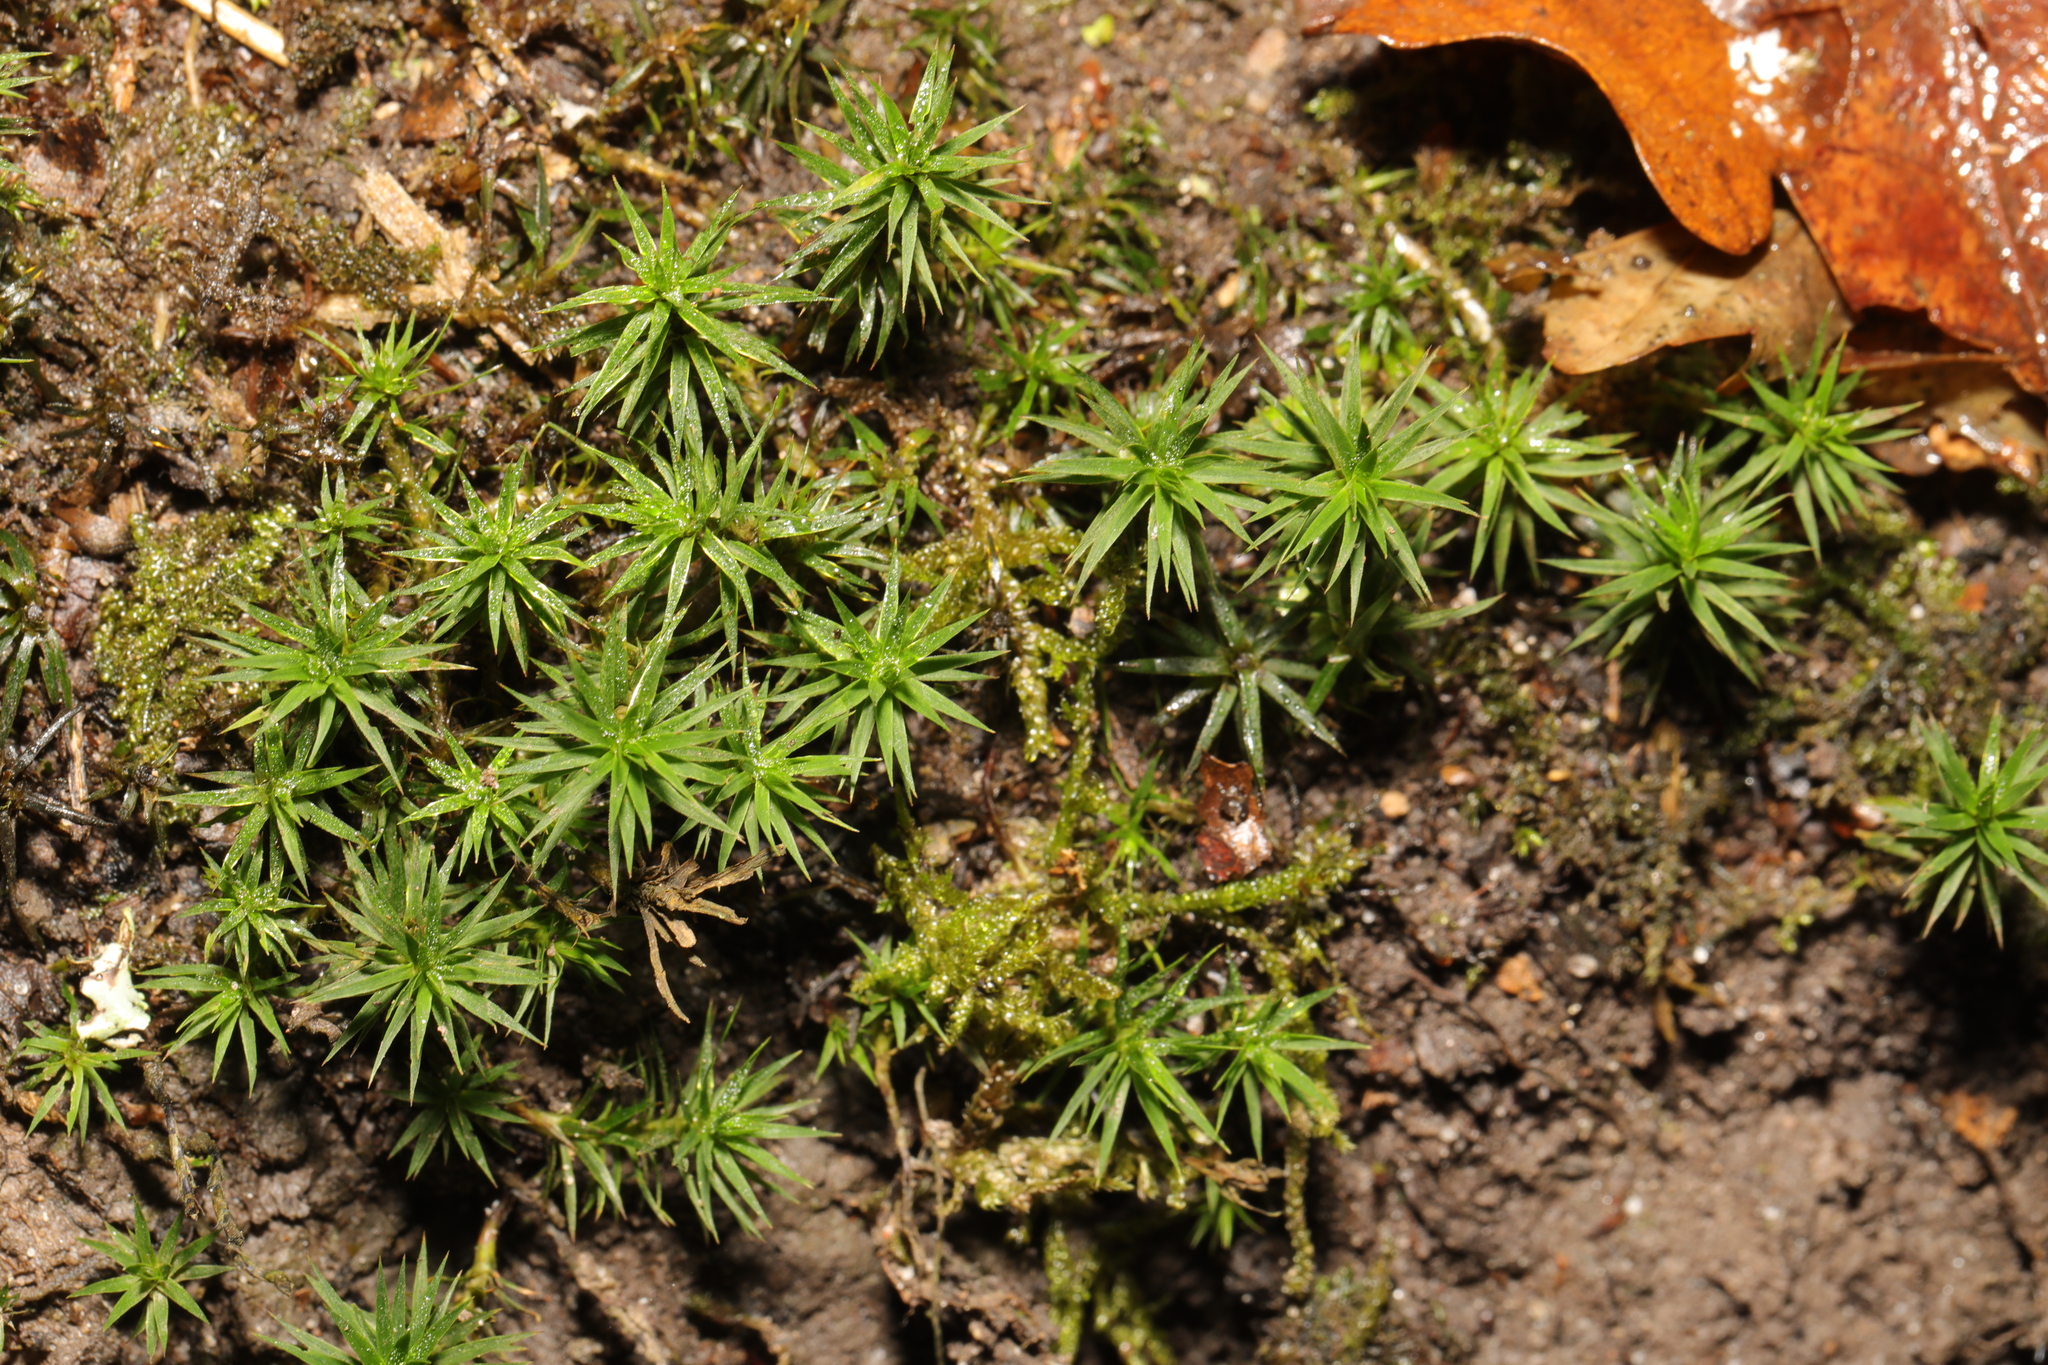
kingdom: Plantae
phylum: Bryophyta
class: Polytrichopsida
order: Polytrichales
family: Polytrichaceae
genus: Polytrichum
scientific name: Polytrichum formosum
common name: Bank haircap moss
